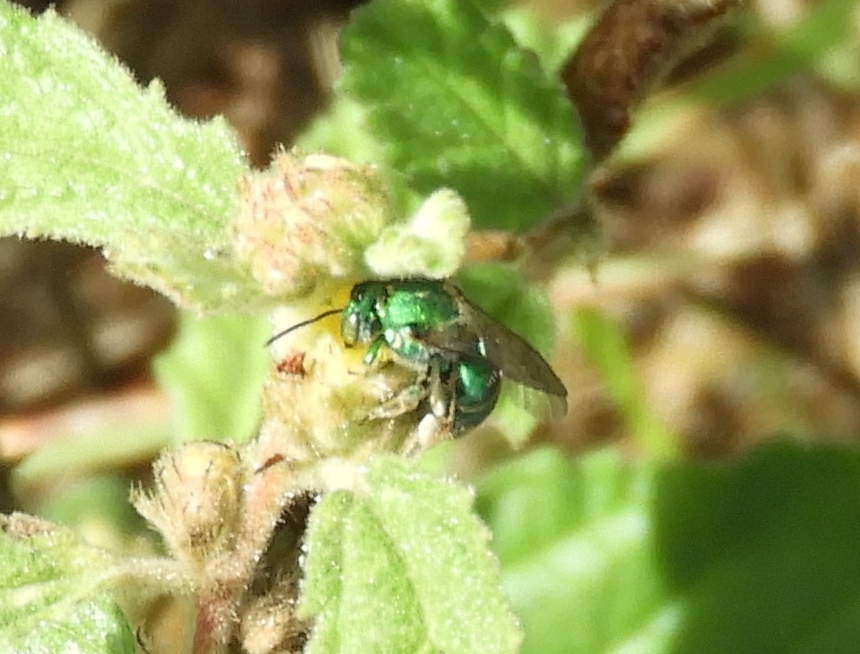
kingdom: Animalia
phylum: Arthropoda
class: Insecta
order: Hymenoptera
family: Halictidae
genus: Augochloropsis
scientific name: Augochloropsis
